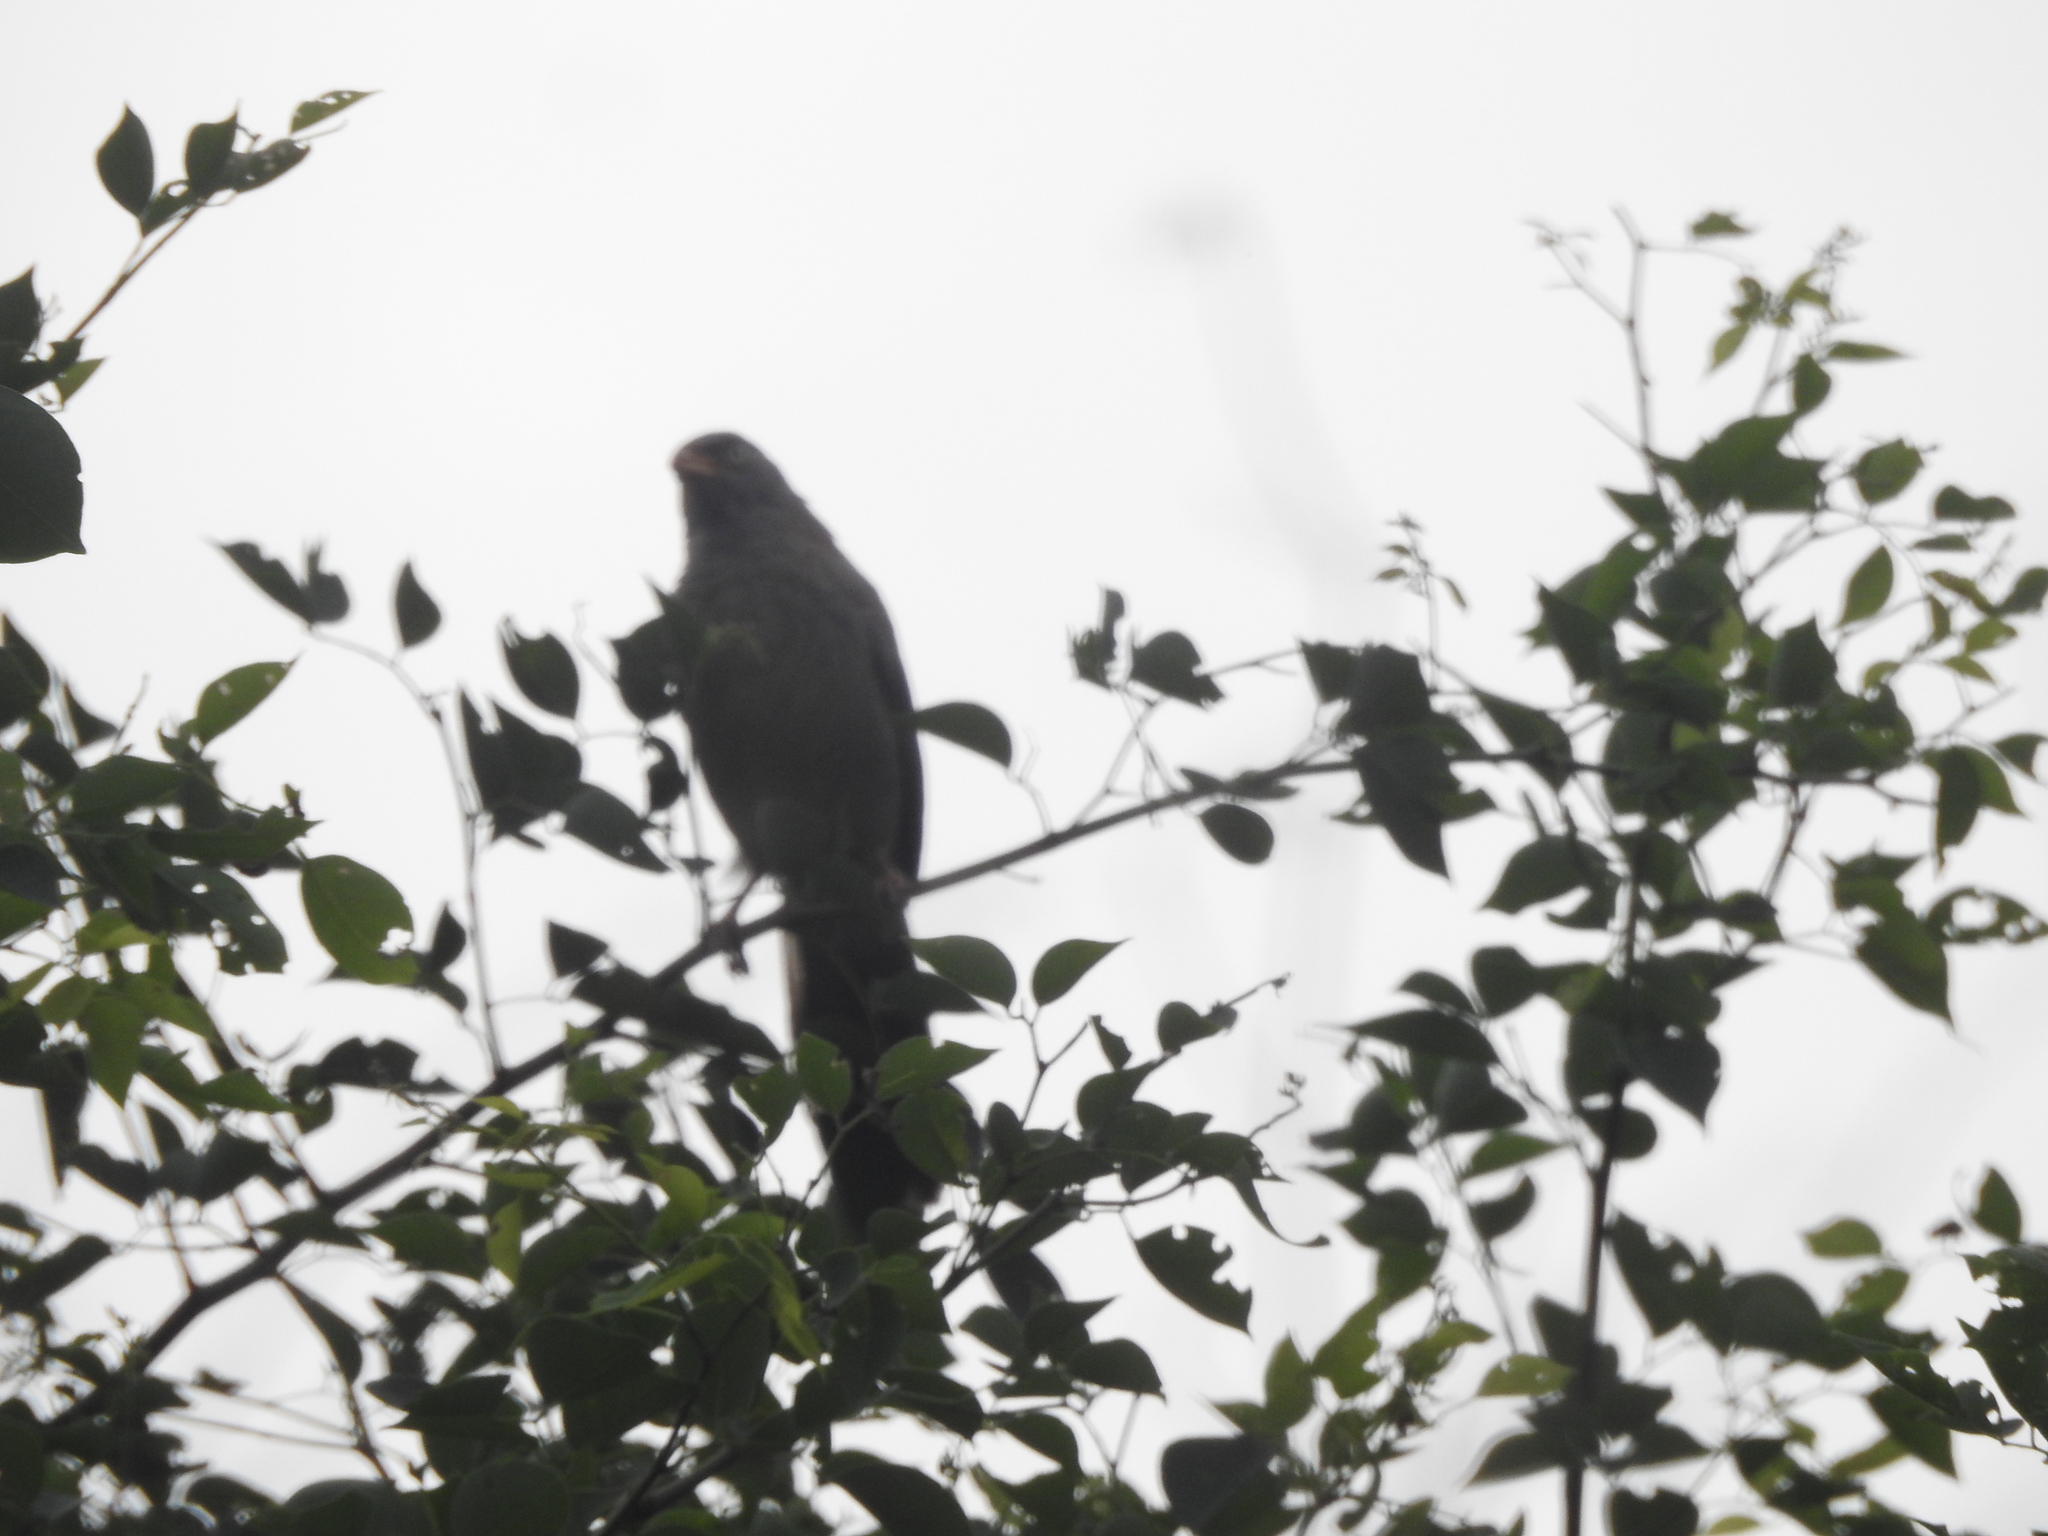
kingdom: Animalia
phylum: Chordata
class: Aves
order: Passeriformes
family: Leiothrichidae
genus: Turdoides
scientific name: Turdoides striata
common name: Jungle babbler
